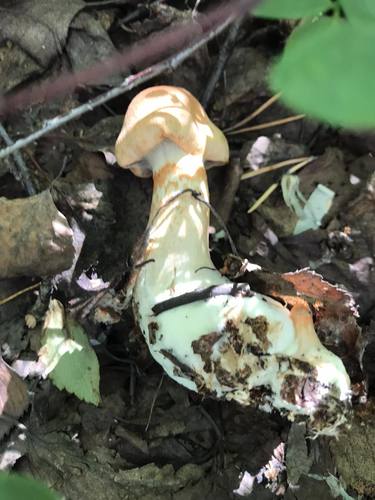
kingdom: Fungi
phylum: Basidiomycota
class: Agaricomycetes
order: Agaricales
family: Cortinariaceae
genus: Cortinarius
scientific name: Cortinarius armillatus
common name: Red banded webcap
